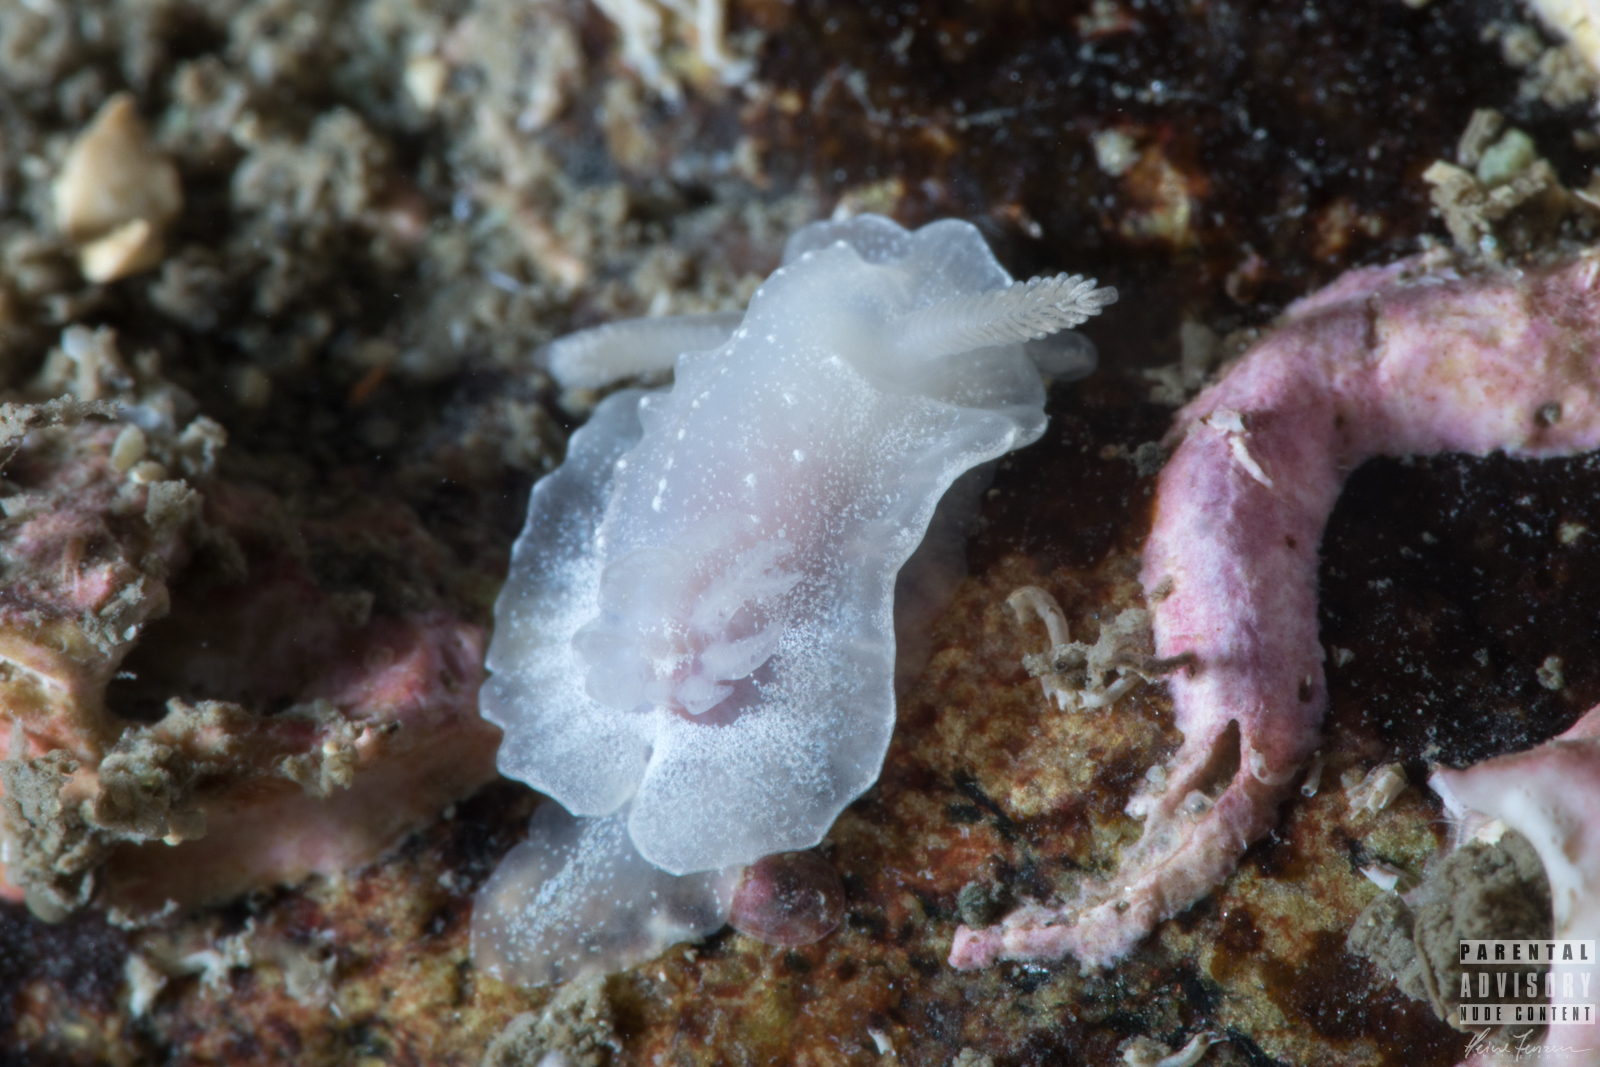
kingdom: Animalia
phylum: Mollusca
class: Gastropoda
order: Nudibranchia
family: Goniodorididae
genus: Okenia
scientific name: Okenia
